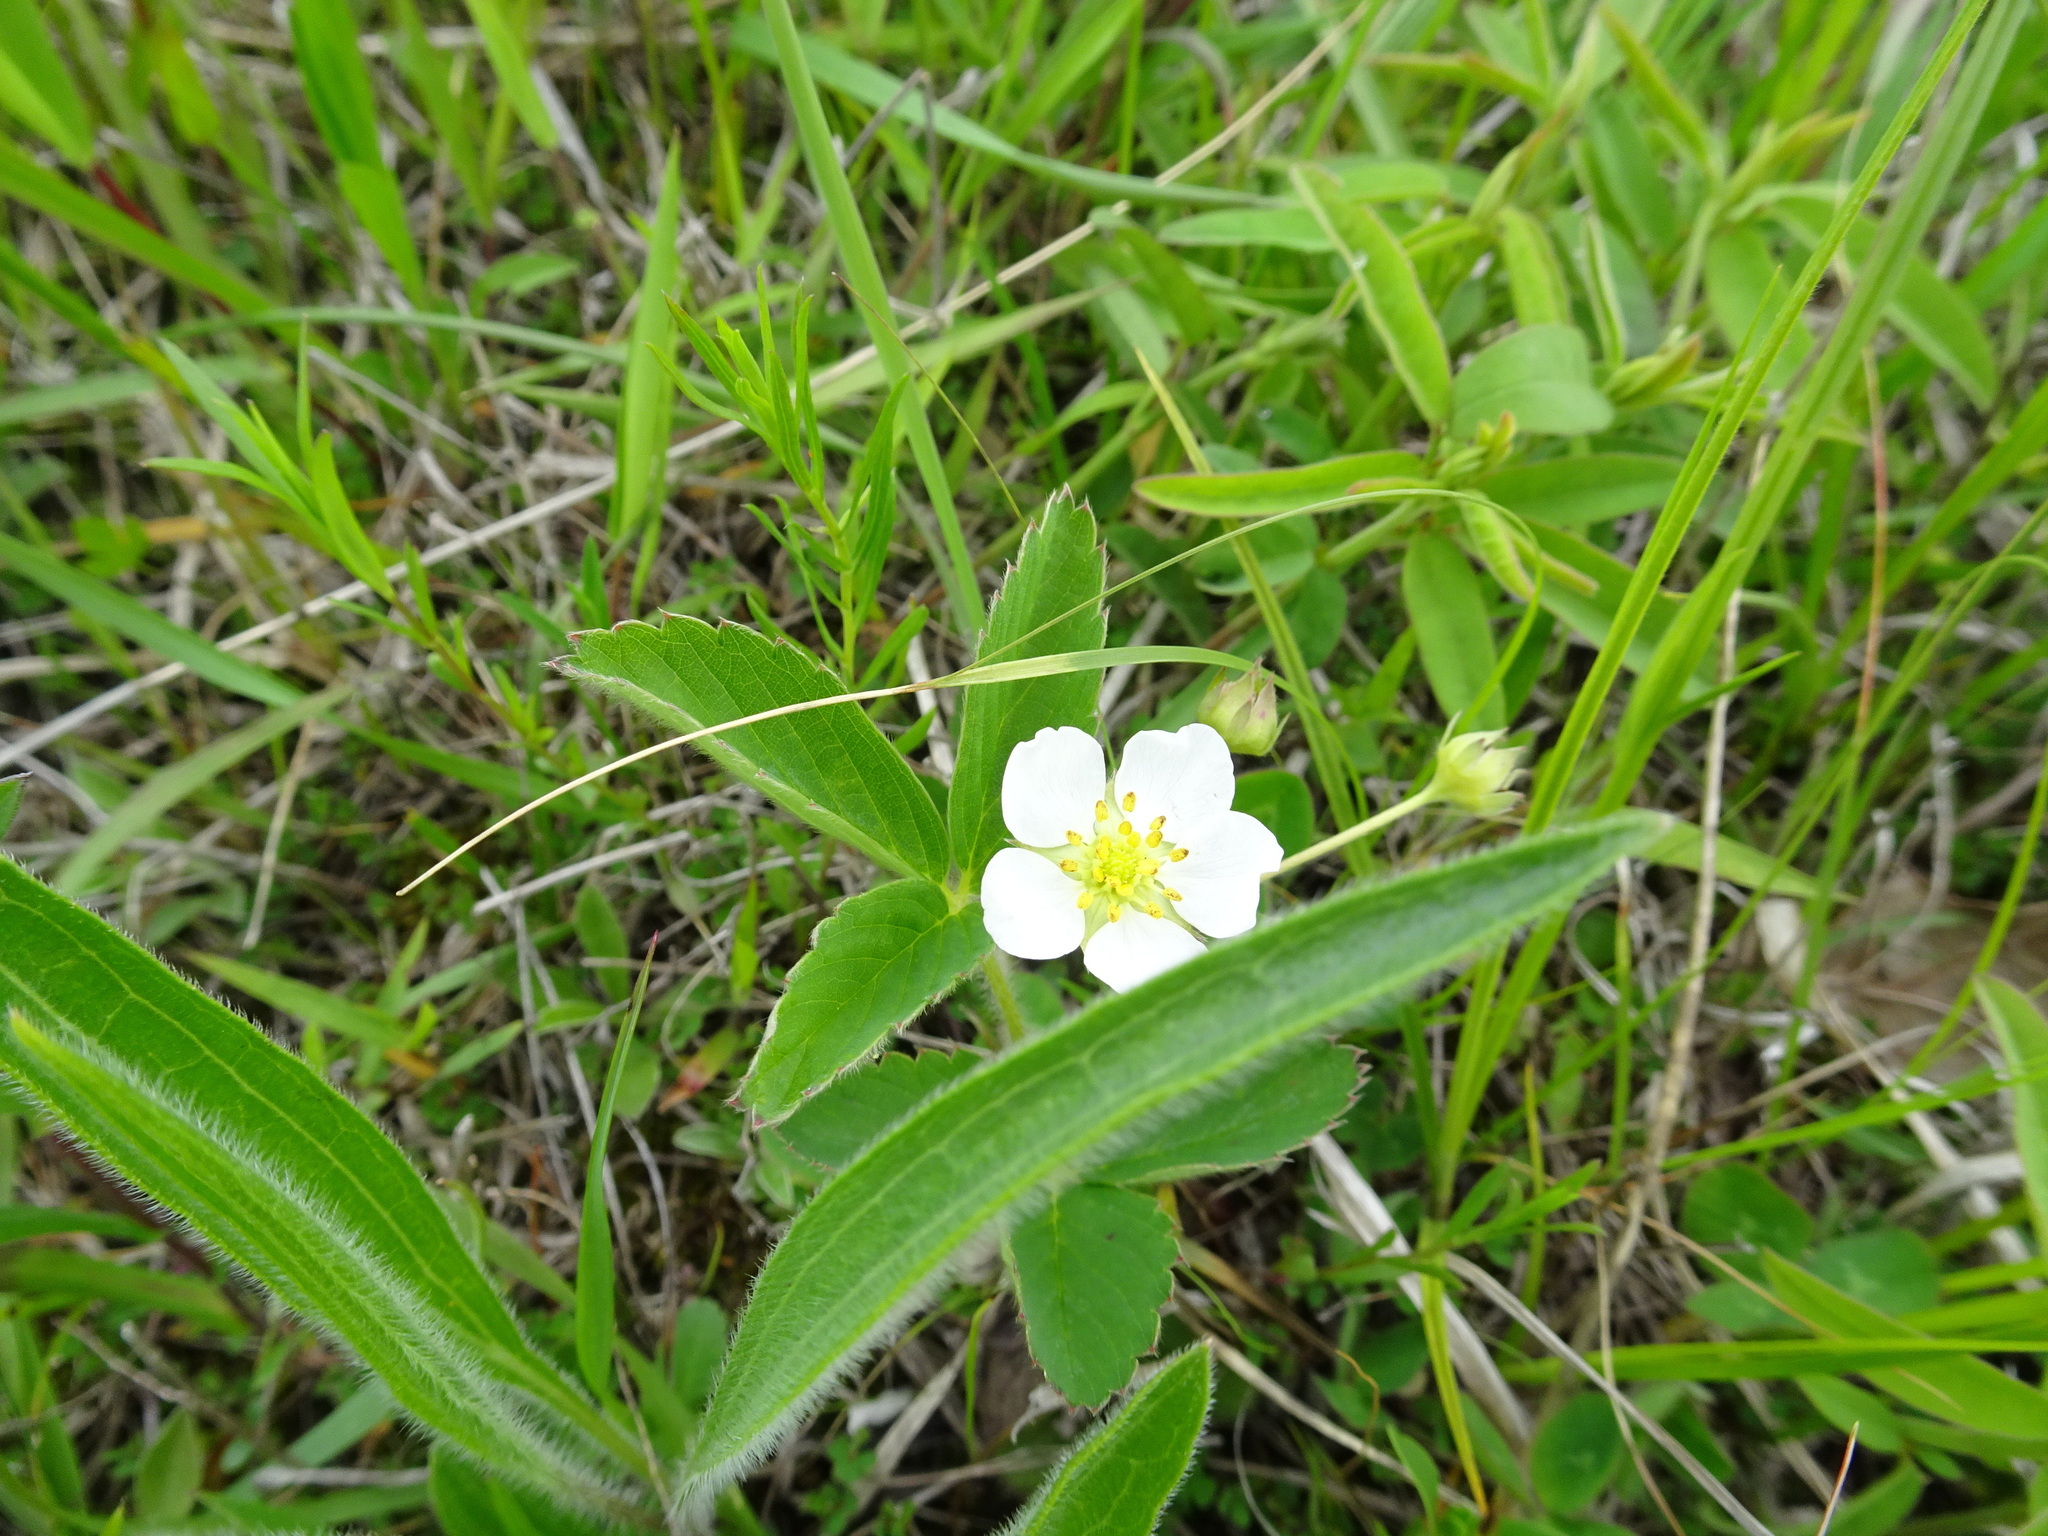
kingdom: Plantae
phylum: Tracheophyta
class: Magnoliopsida
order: Rosales
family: Rosaceae
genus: Fragaria
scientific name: Fragaria virginiana
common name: Thickleaved wild strawberry
